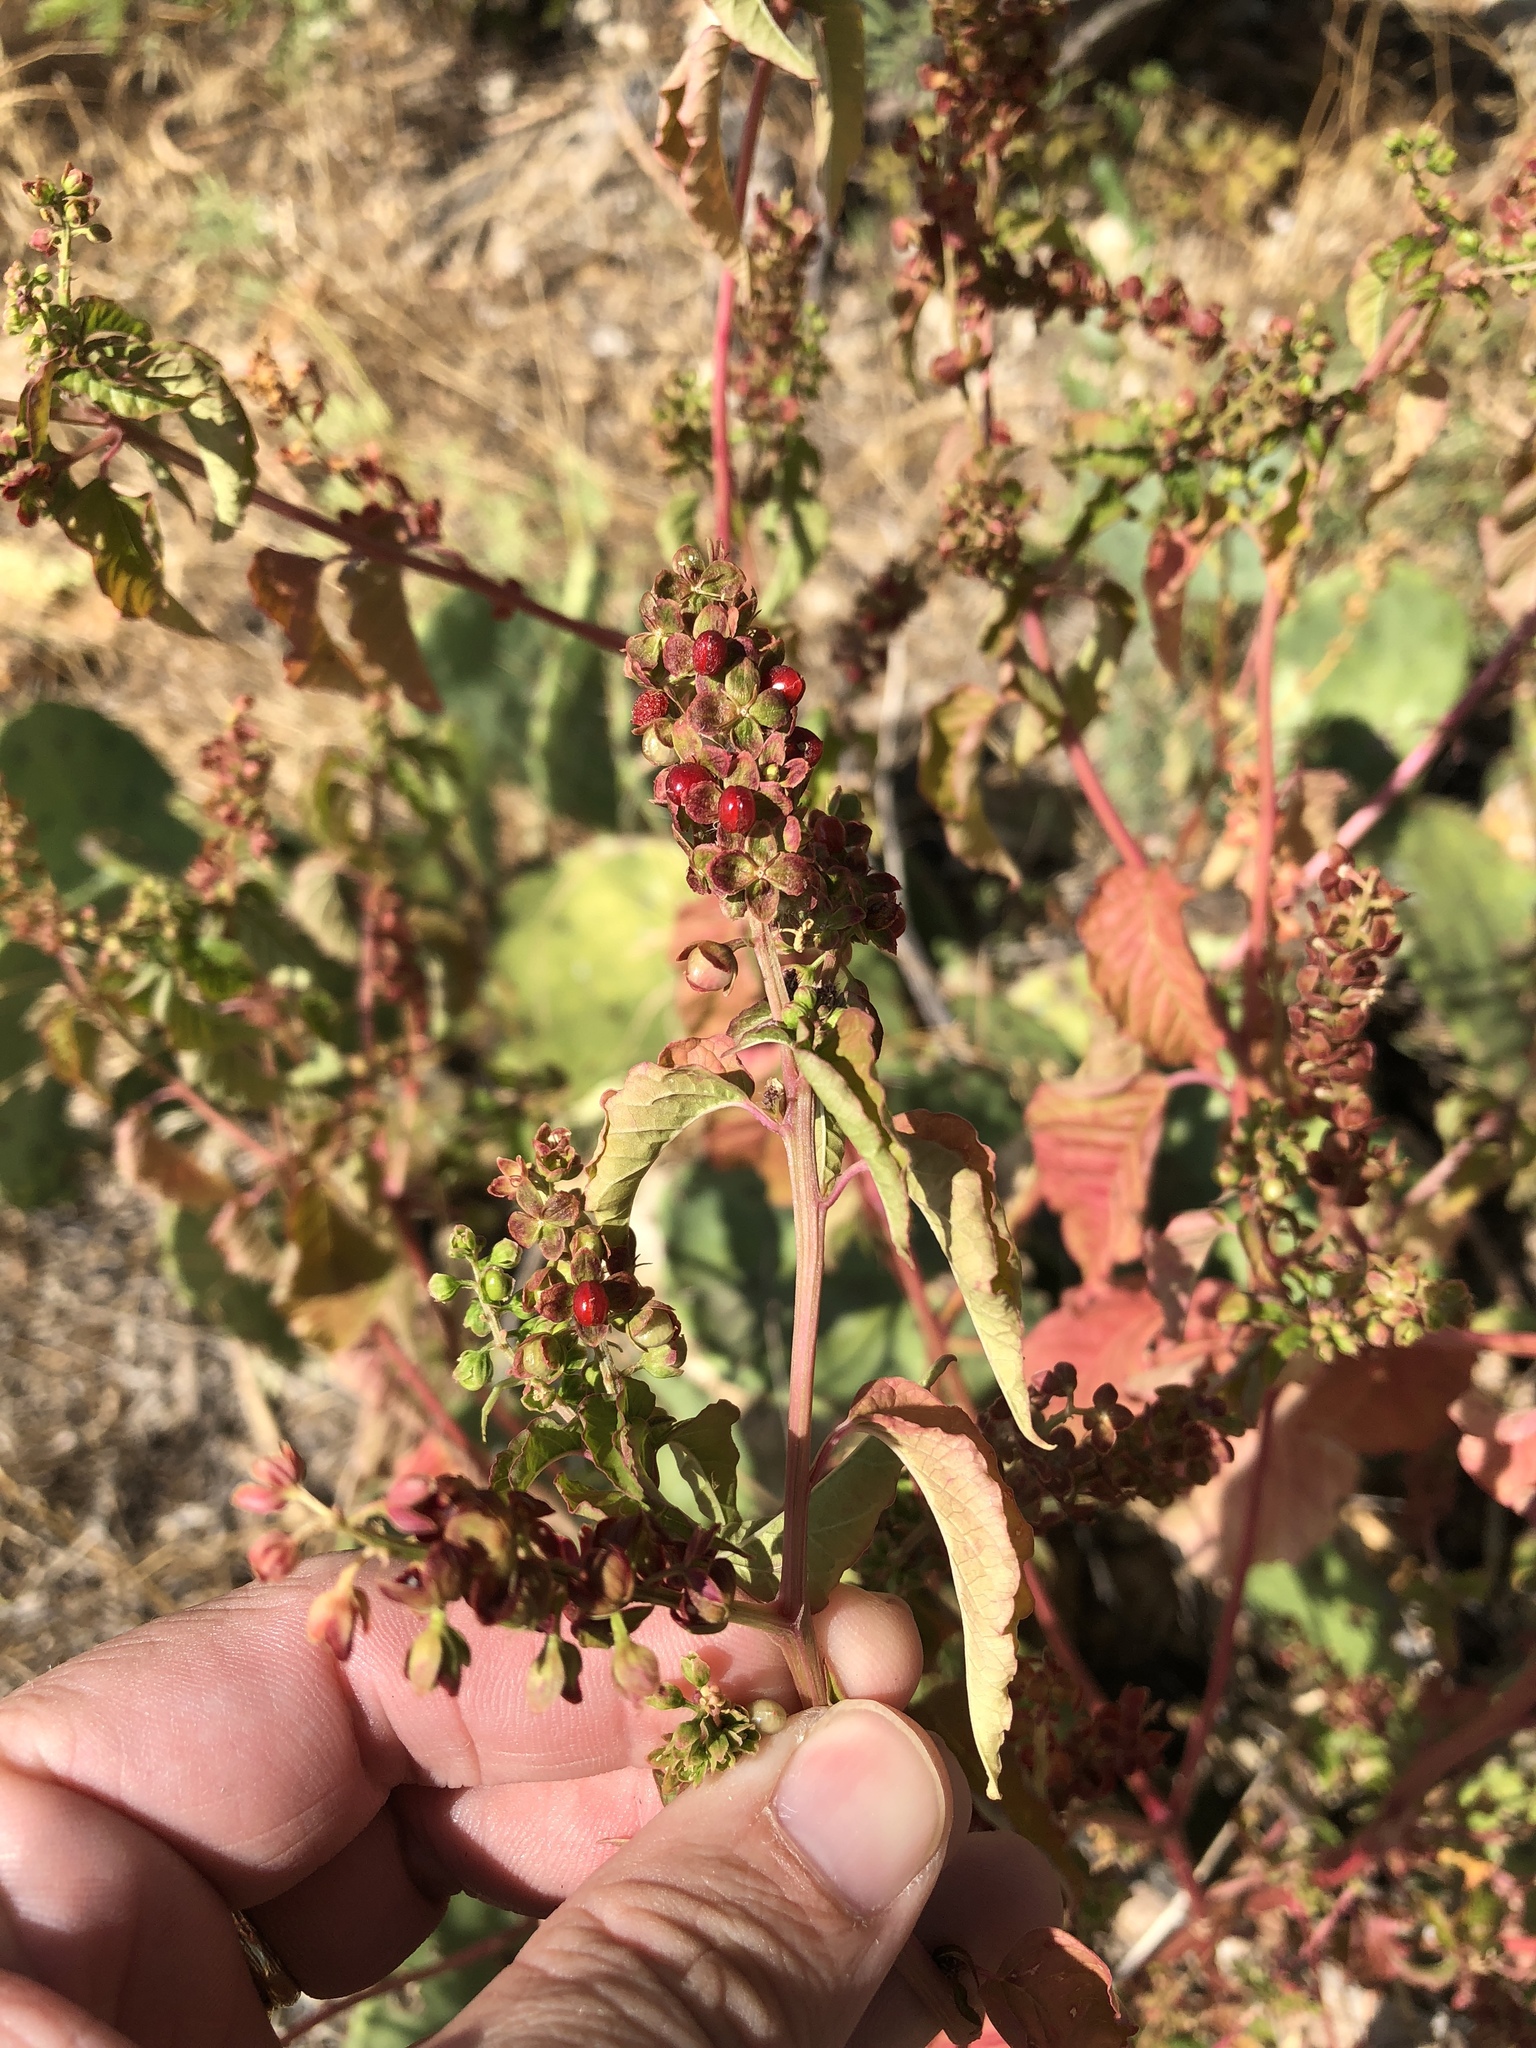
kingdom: Plantae
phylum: Tracheophyta
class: Magnoliopsida
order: Caryophyllales
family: Phytolaccaceae
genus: Rivina
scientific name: Rivina humilis
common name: Rougeplant
